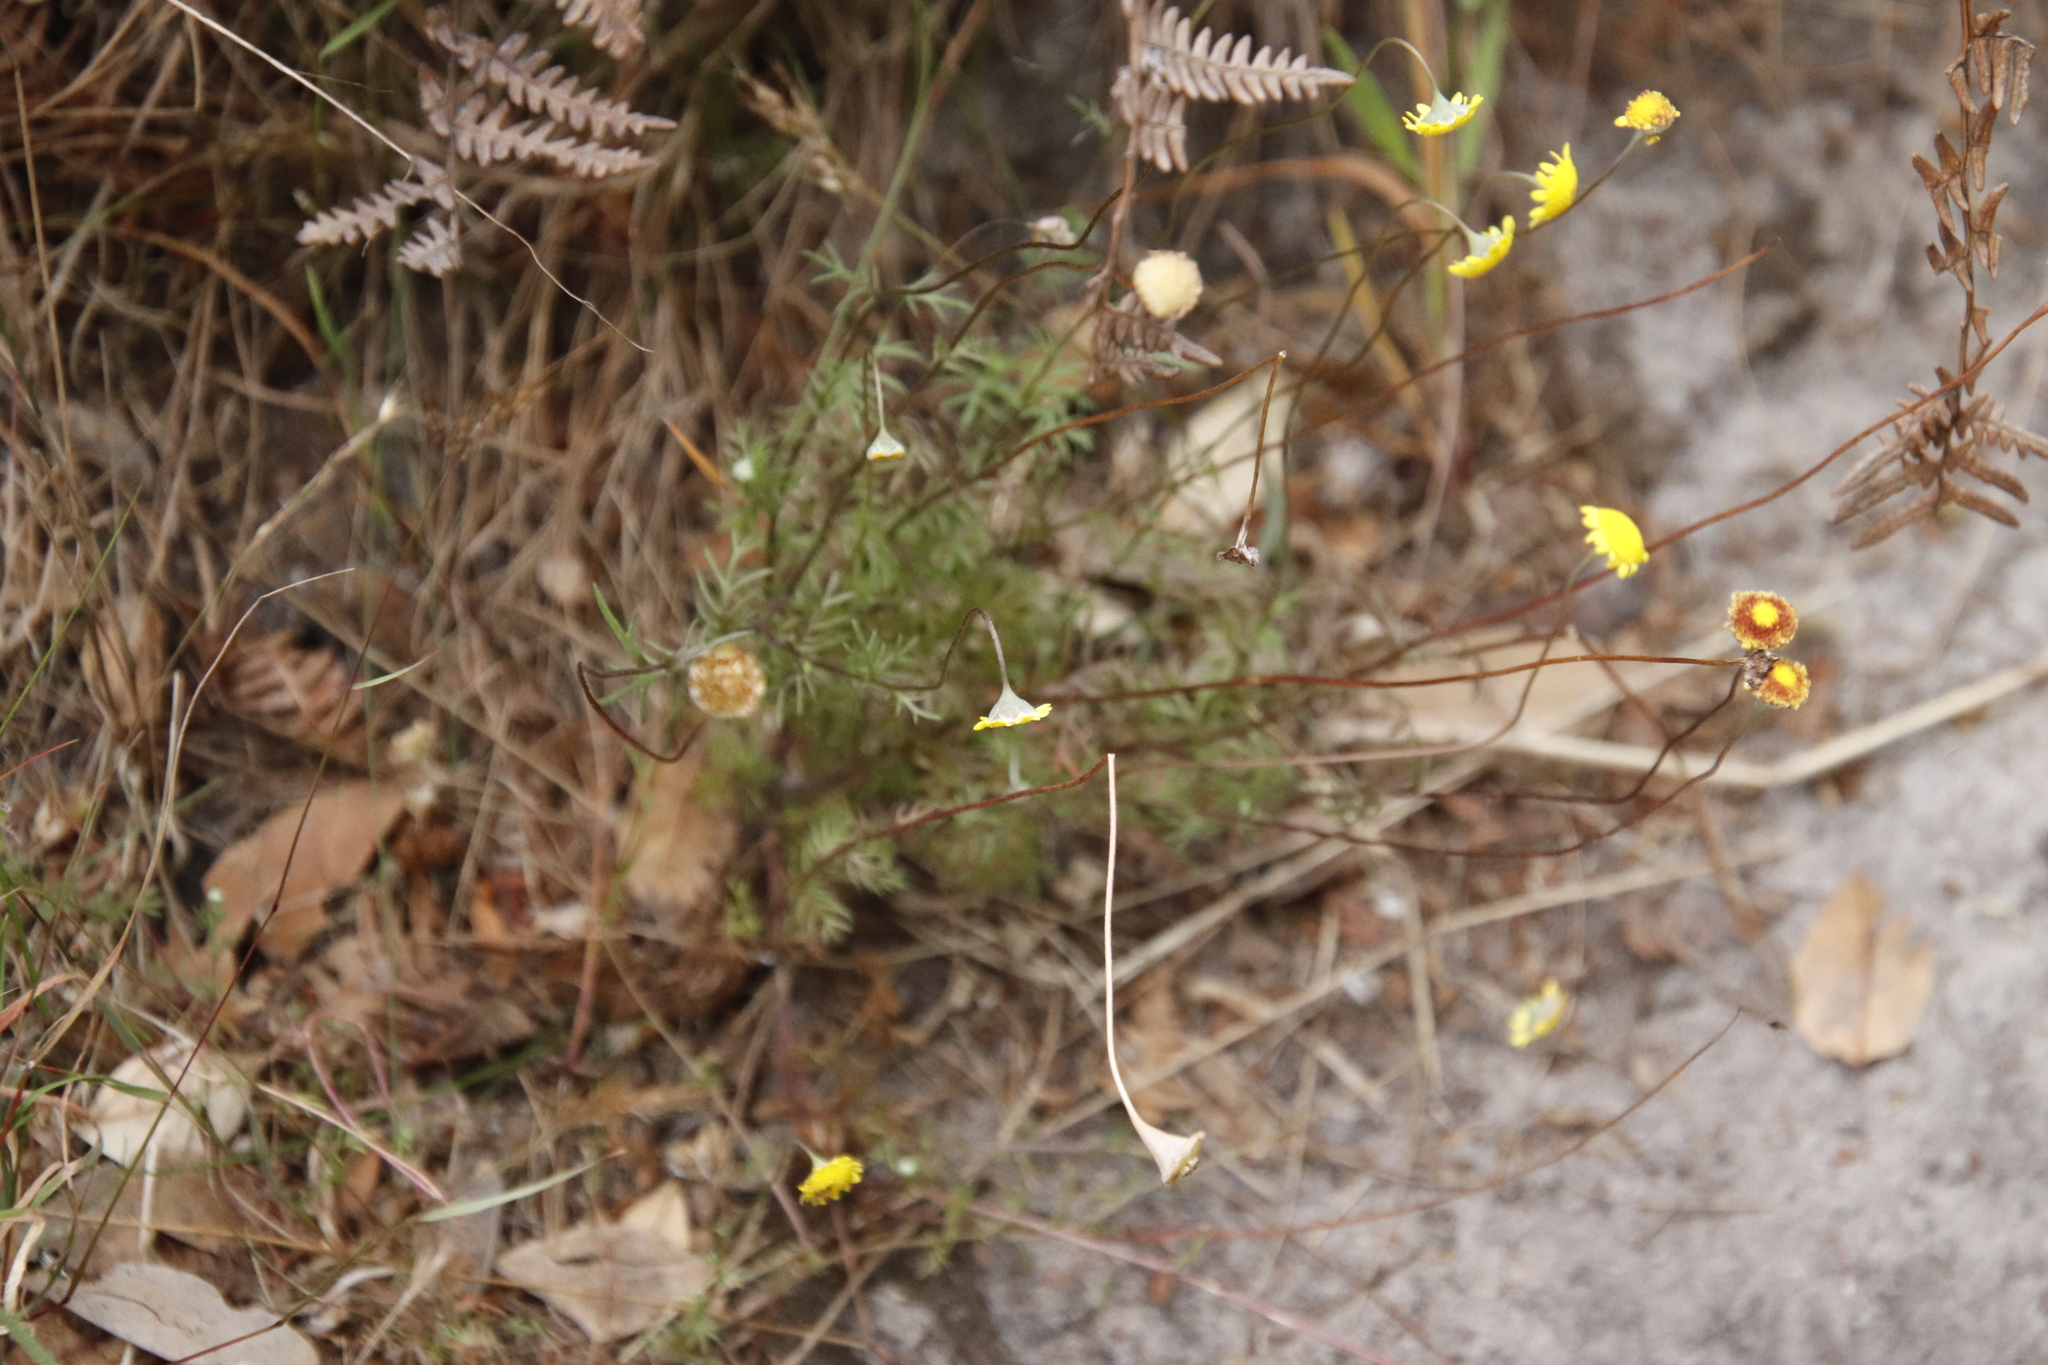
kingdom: Plantae
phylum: Tracheophyta
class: Magnoliopsida
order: Asterales
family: Asteraceae
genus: Cotula
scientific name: Cotula pruinosa
